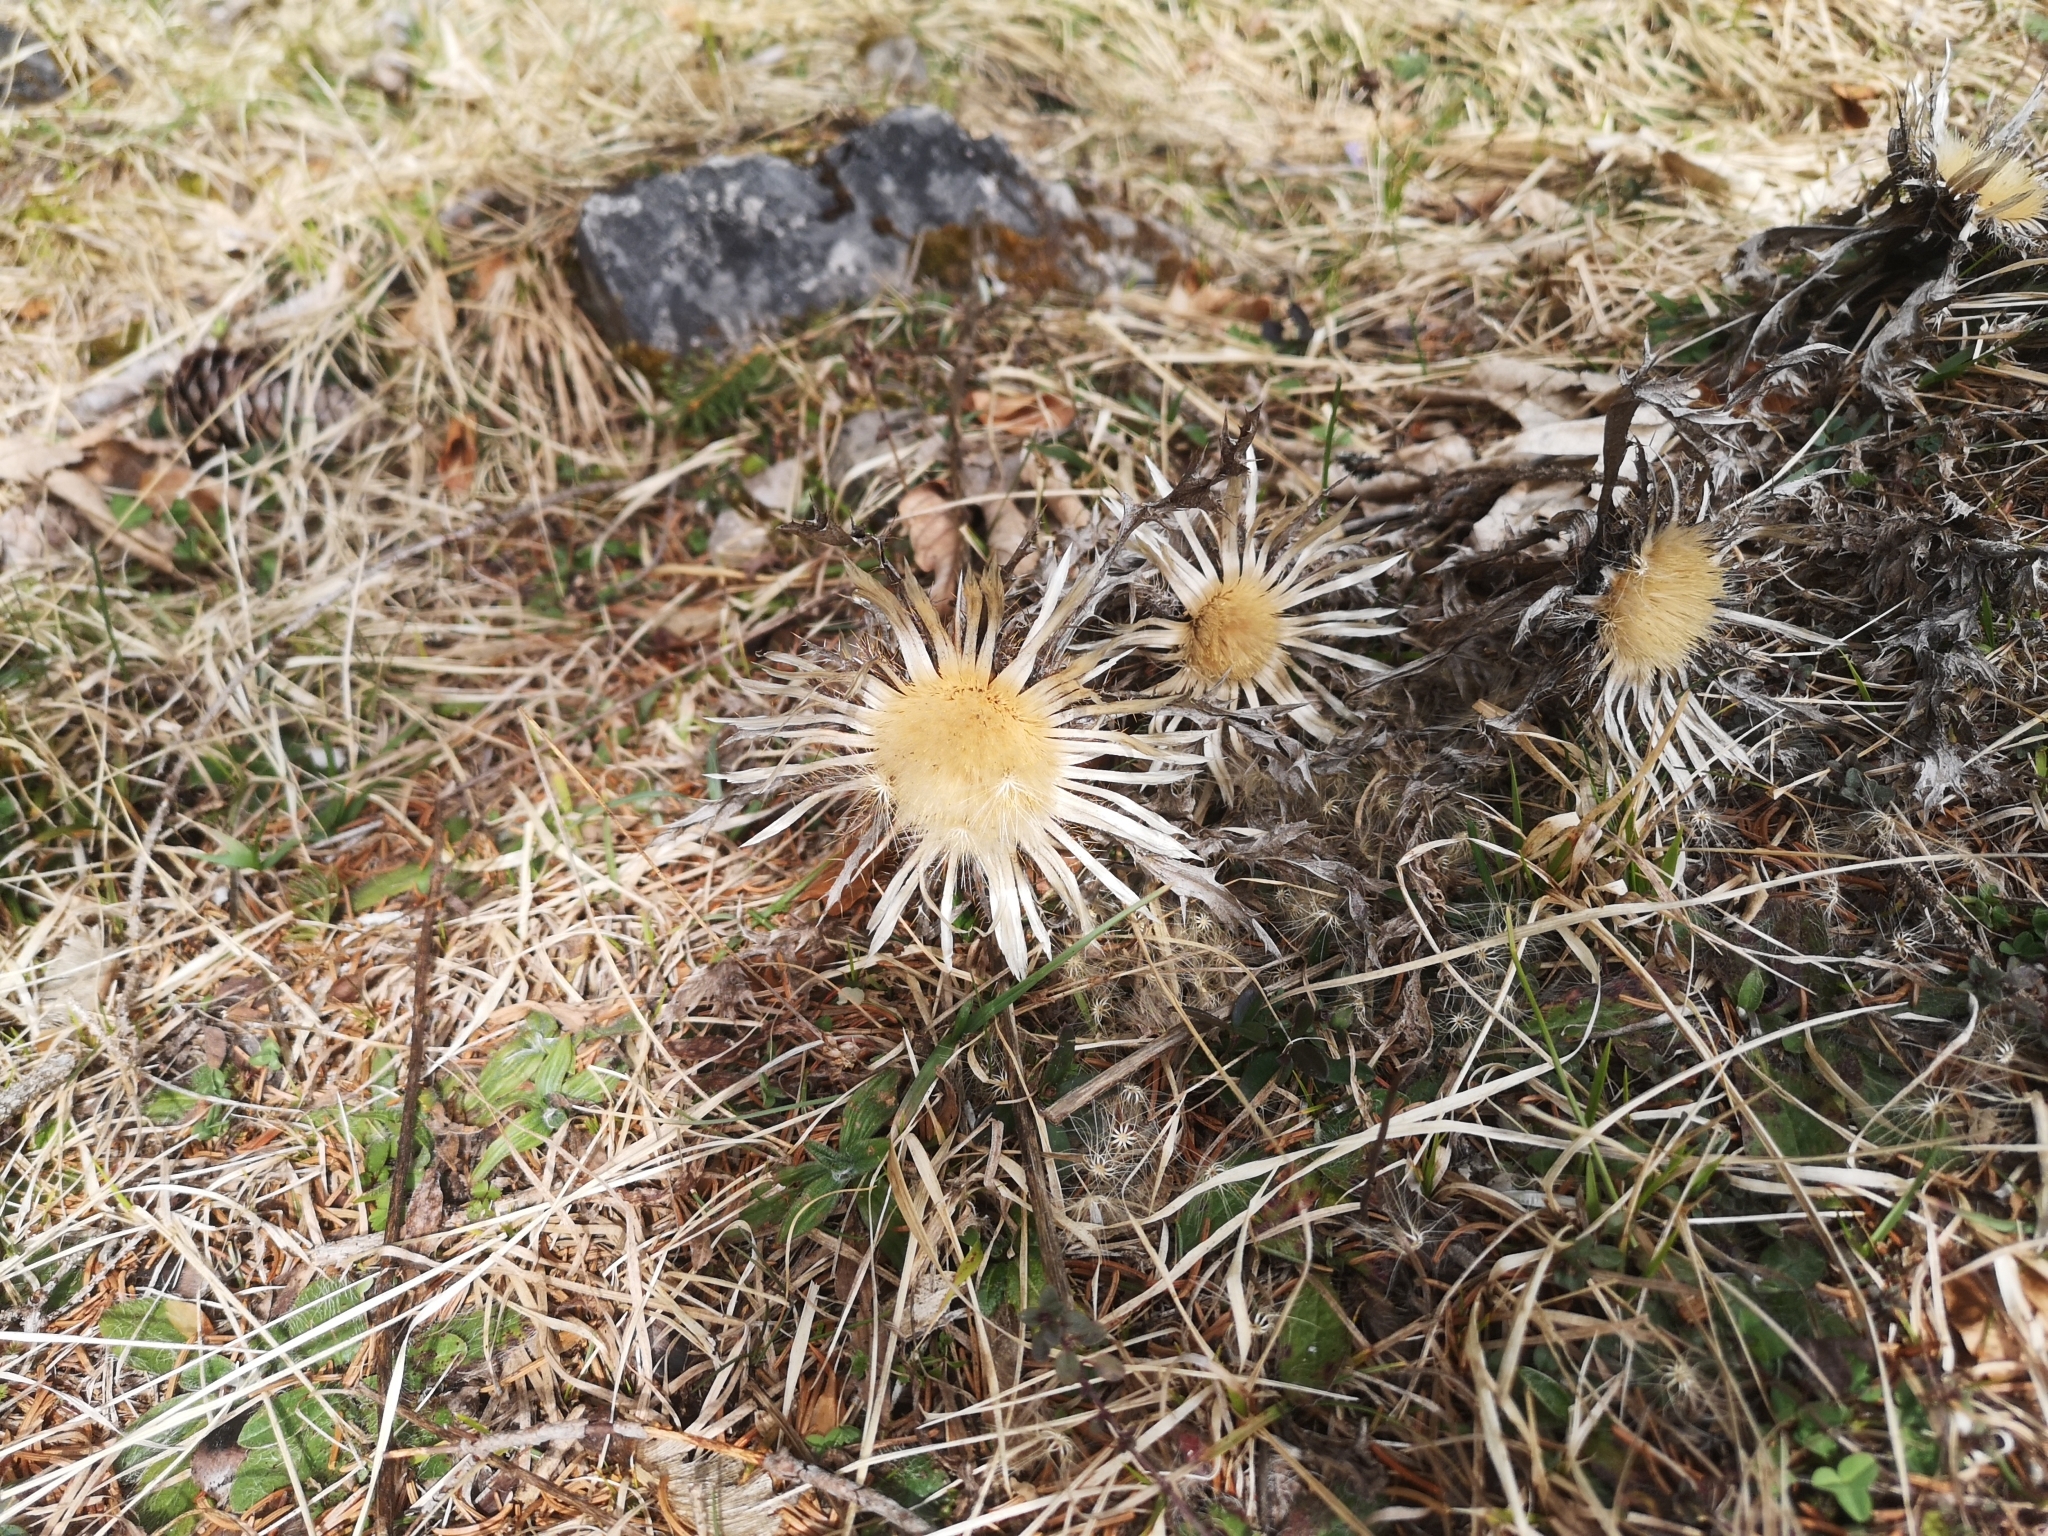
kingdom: Plantae
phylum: Tracheophyta
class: Magnoliopsida
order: Asterales
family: Asteraceae
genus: Carlina
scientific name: Carlina acaulis
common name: Stemless carline thistle
